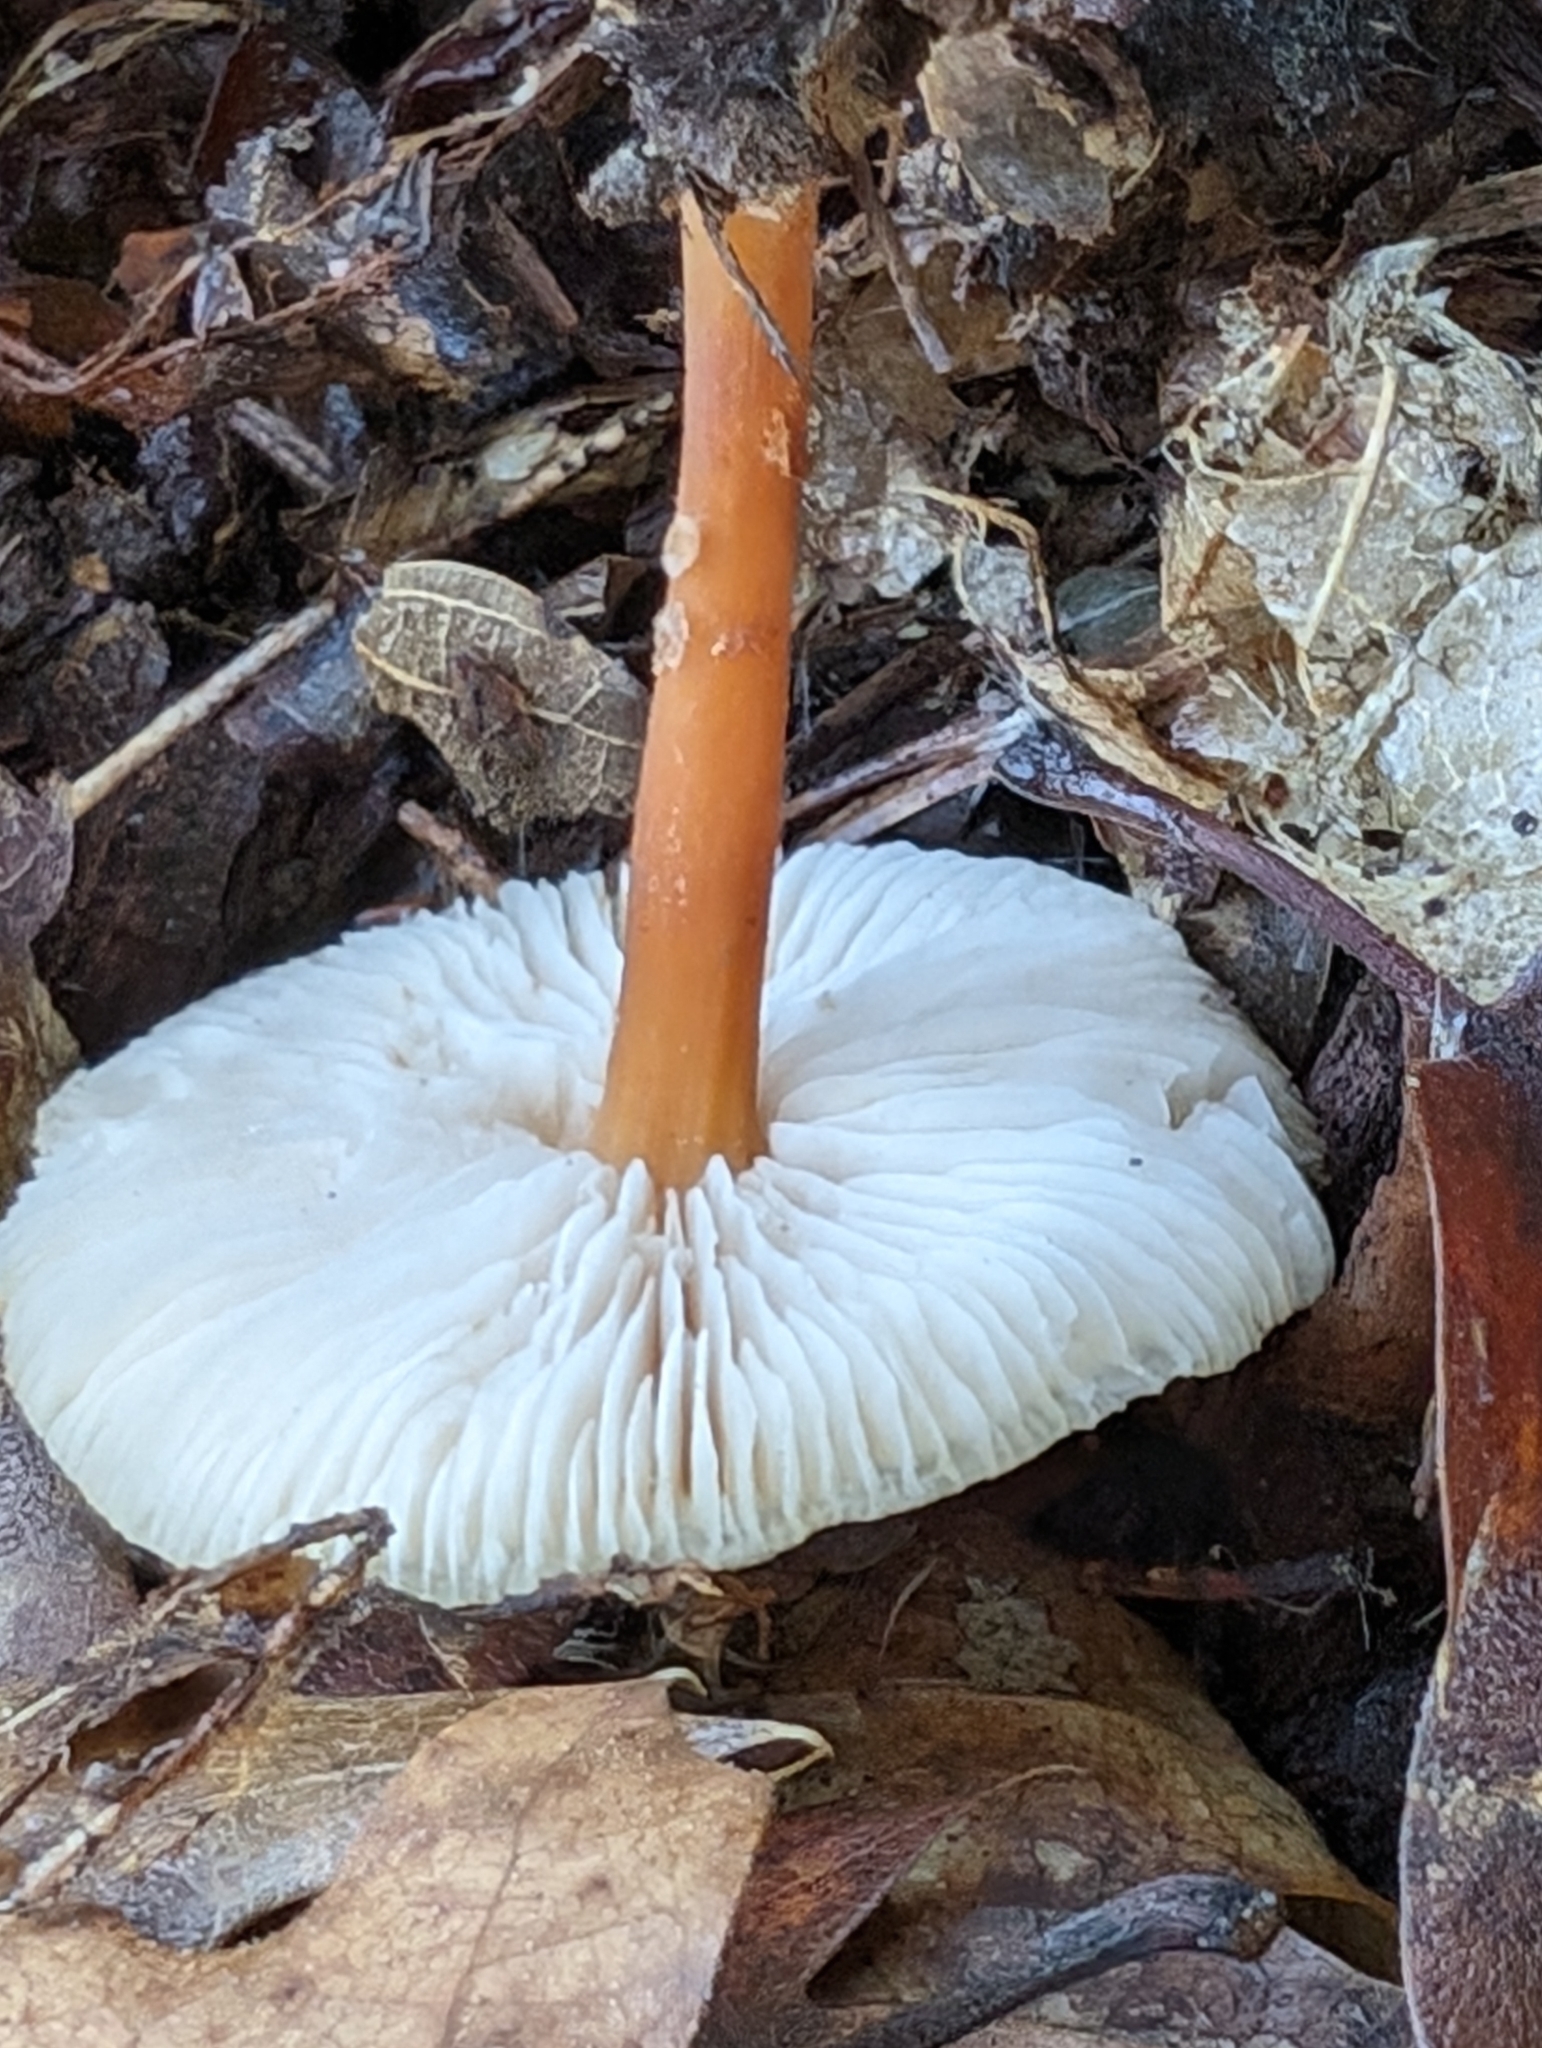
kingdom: Fungi
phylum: Basidiomycota
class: Agaricomycetes
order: Agaricales
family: Omphalotaceae
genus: Gymnopus
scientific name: Gymnopus dryophilus
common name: Penny top
